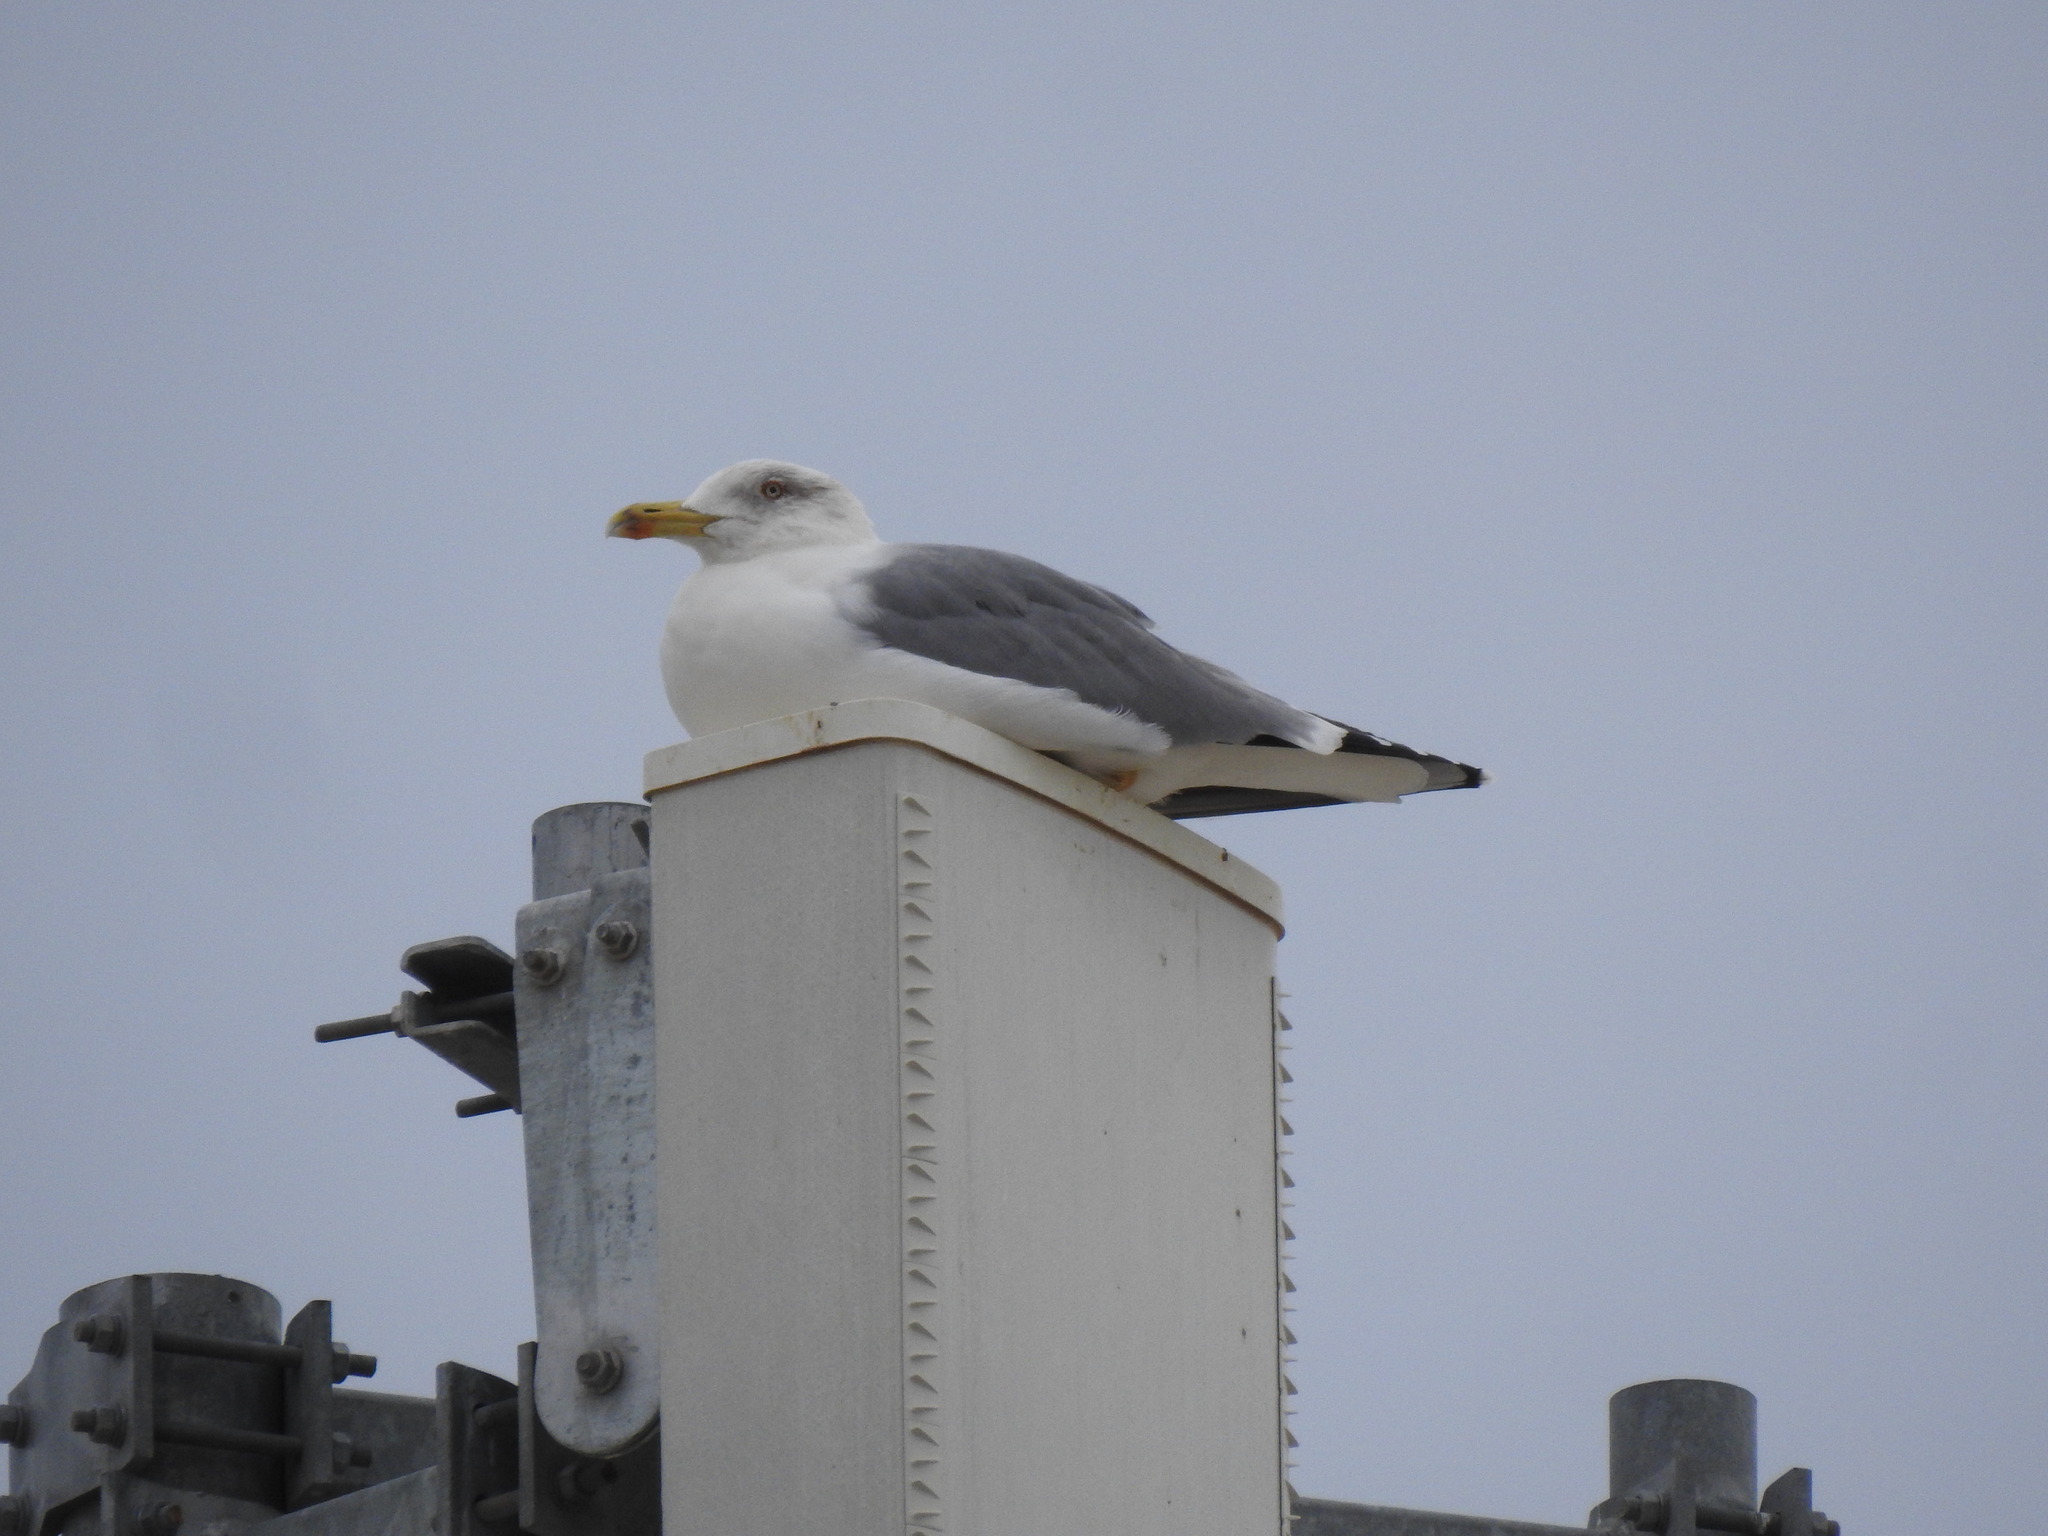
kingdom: Animalia
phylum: Chordata
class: Aves
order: Charadriiformes
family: Laridae
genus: Larus
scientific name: Larus michahellis
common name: Yellow-legged gull
